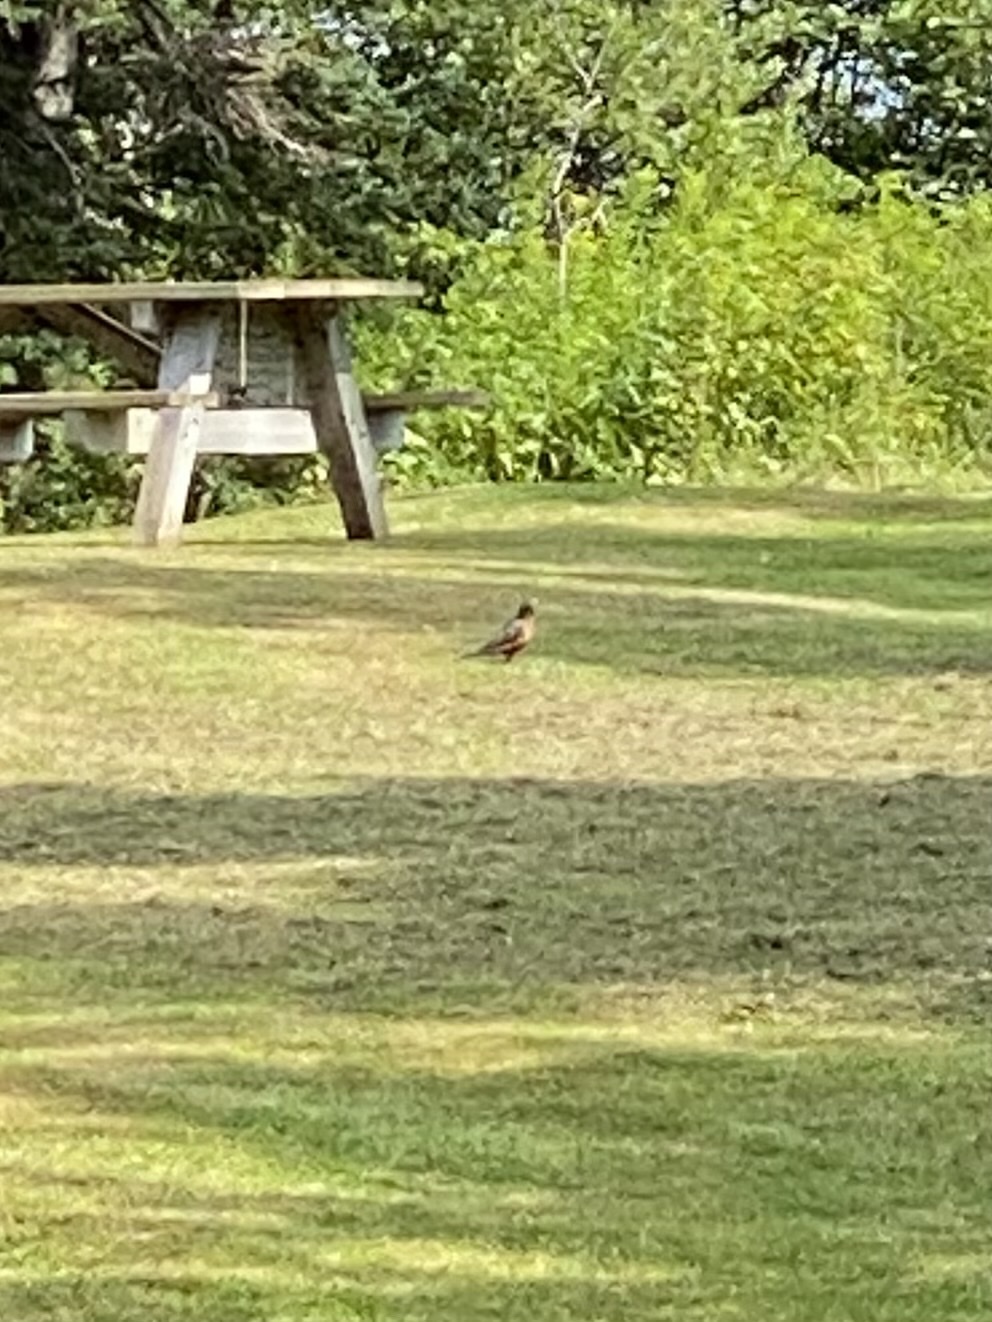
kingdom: Animalia
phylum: Chordata
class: Aves
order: Passeriformes
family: Turdidae
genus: Turdus
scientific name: Turdus migratorius
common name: American robin
